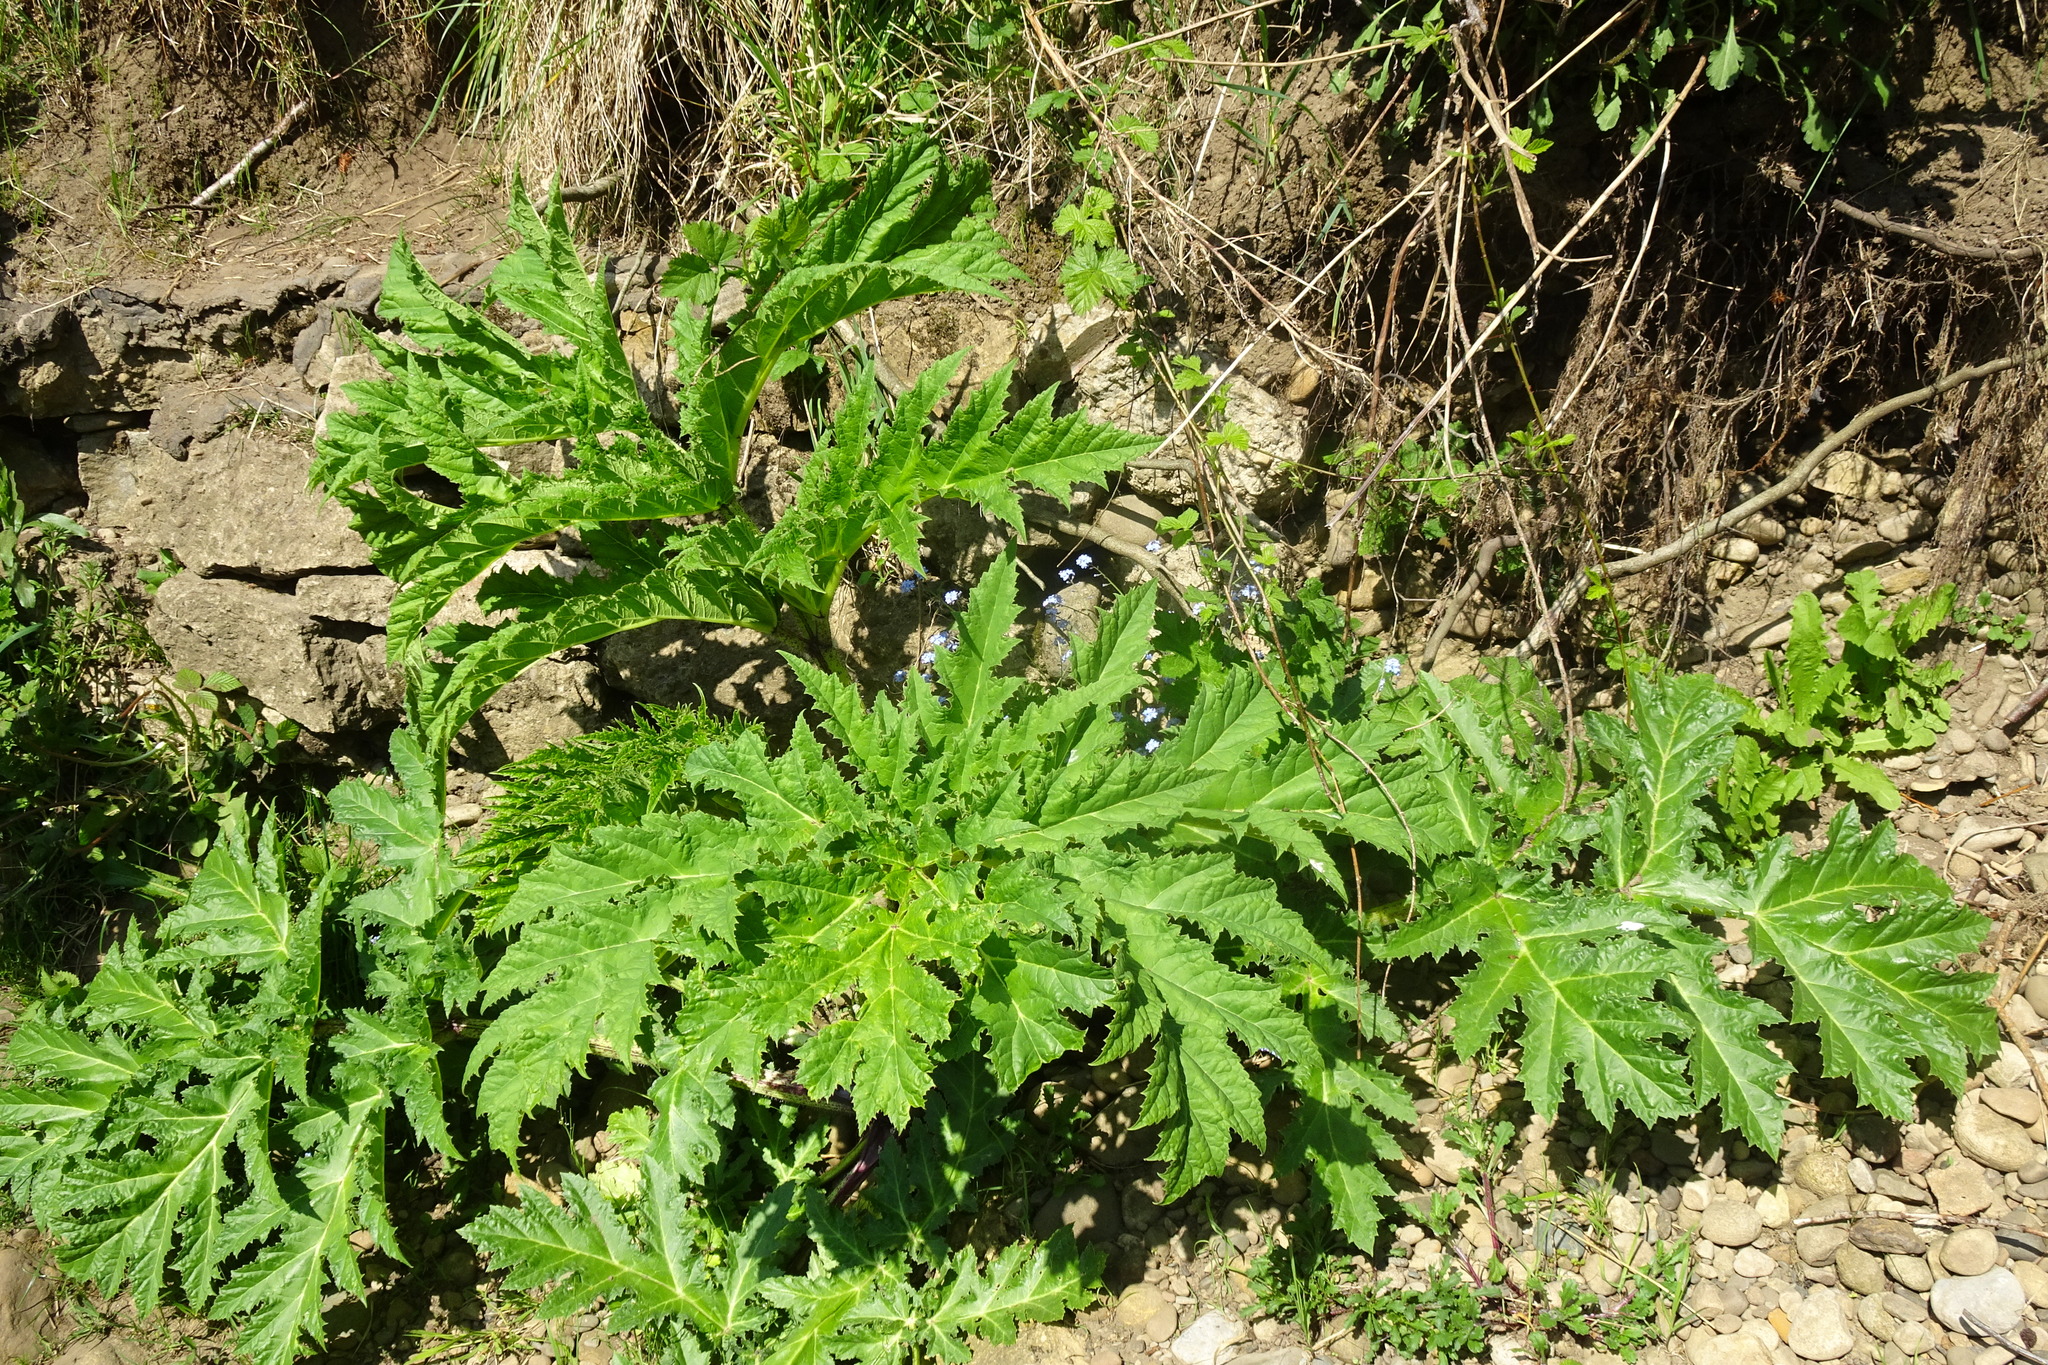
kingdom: Plantae
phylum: Tracheophyta
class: Magnoliopsida
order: Apiales
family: Apiaceae
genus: Heracleum
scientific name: Heracleum mantegazzianum
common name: Giant hogweed
